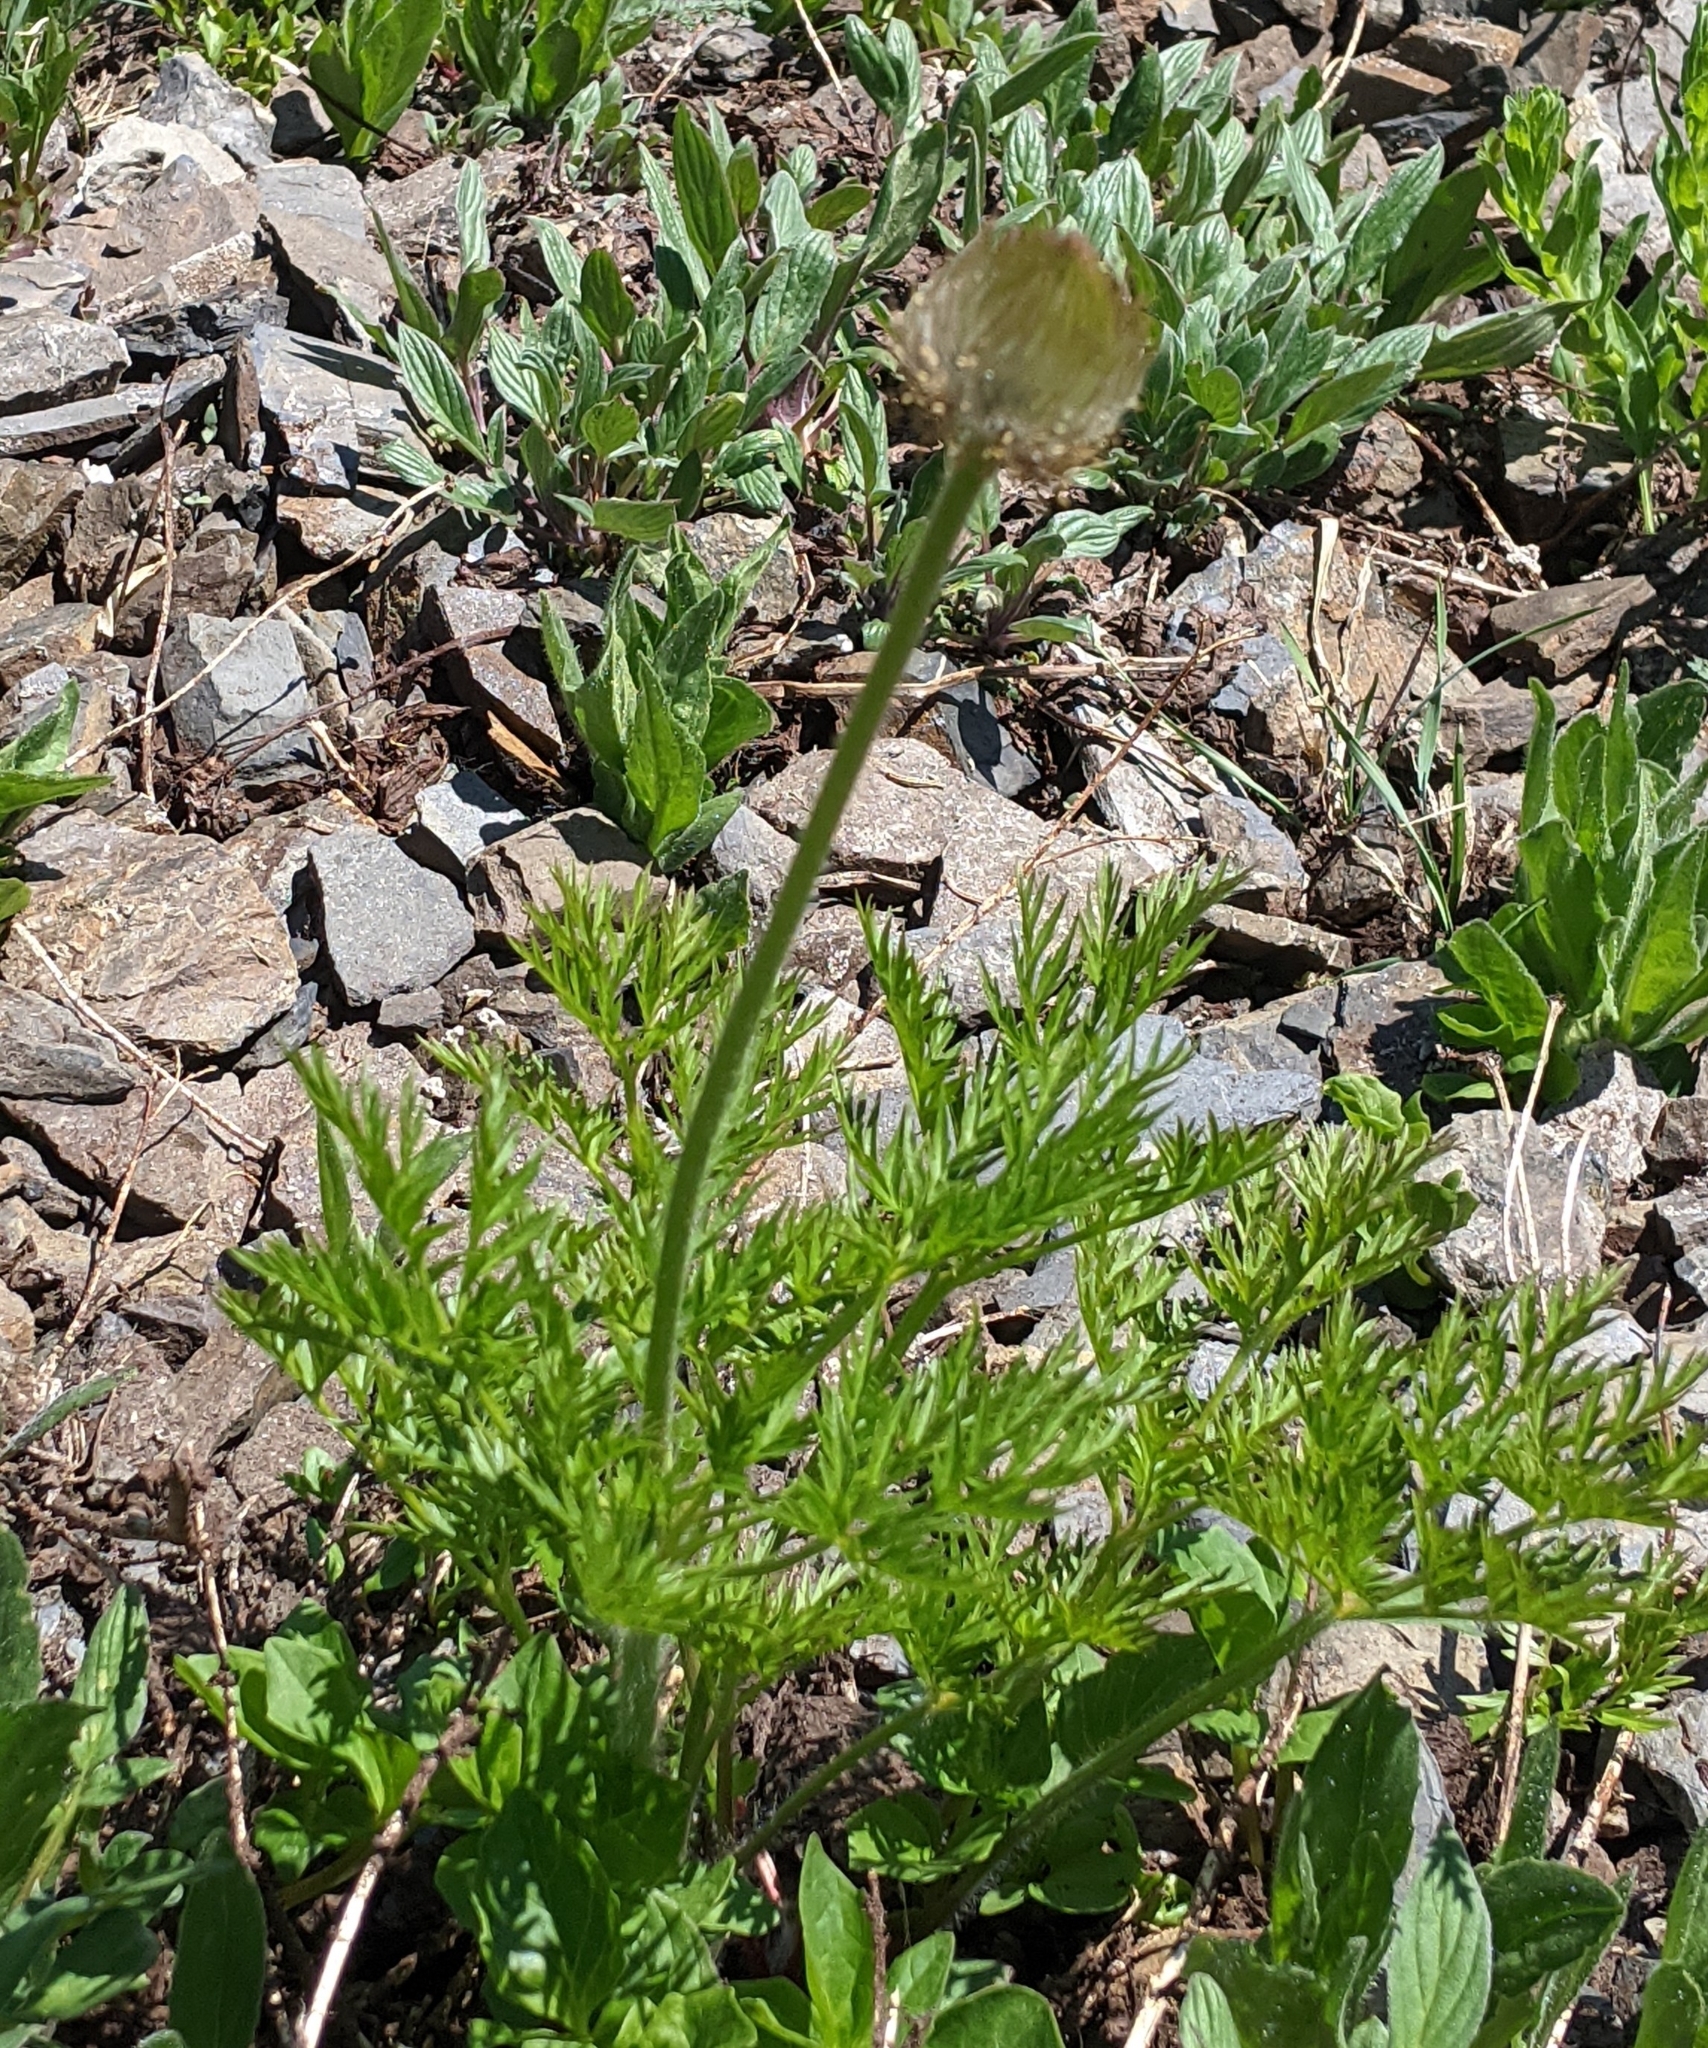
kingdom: Plantae
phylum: Tracheophyta
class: Magnoliopsida
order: Ranunculales
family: Ranunculaceae
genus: Pulsatilla
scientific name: Pulsatilla occidentalis
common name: Mountain pasqueflower
